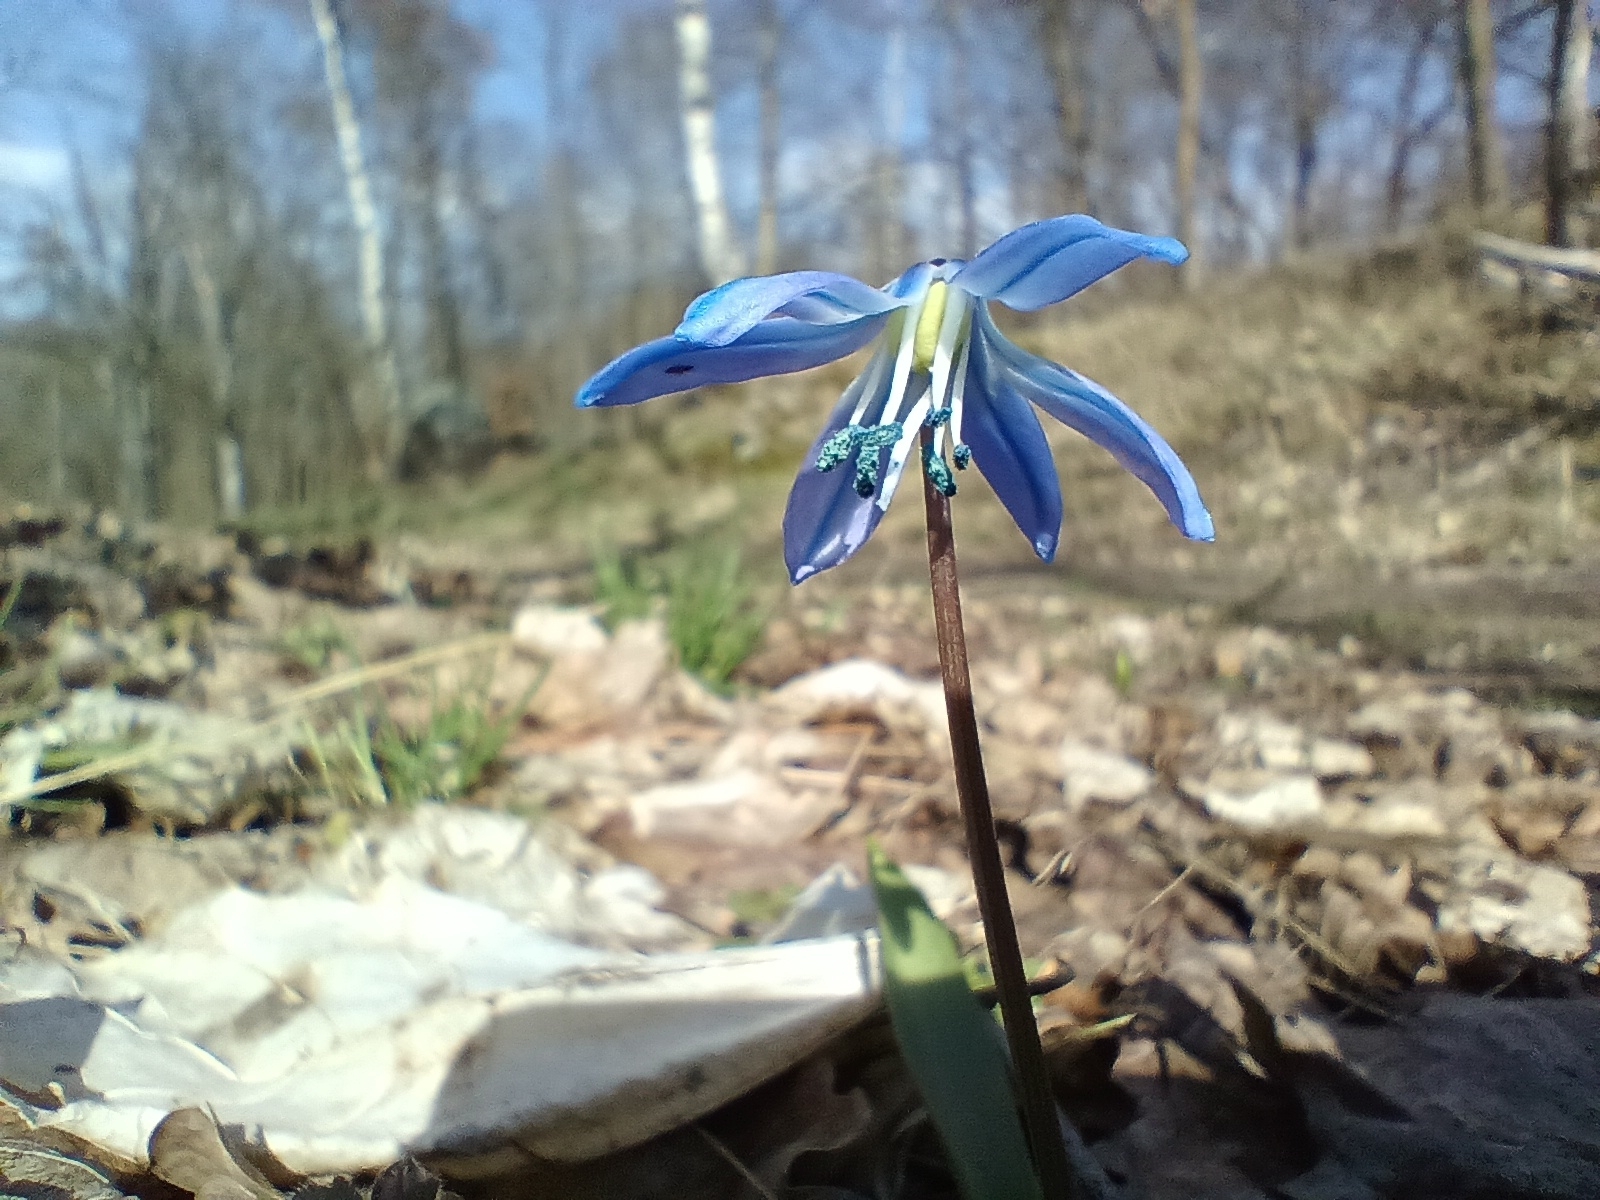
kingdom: Plantae
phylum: Tracheophyta
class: Liliopsida
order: Asparagales
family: Asparagaceae
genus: Scilla
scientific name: Scilla siberica
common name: Siberian squill
